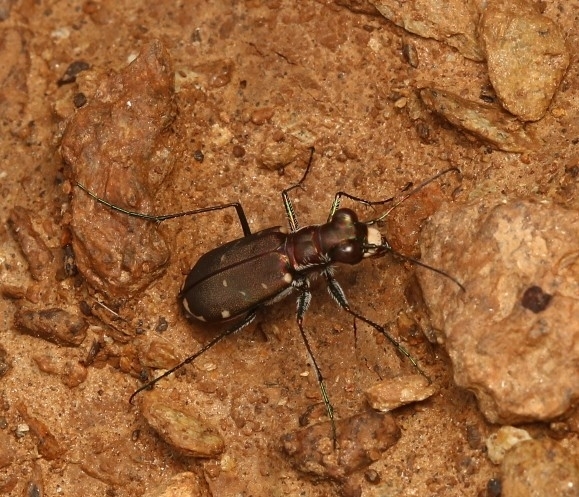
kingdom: Animalia
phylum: Arthropoda
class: Insecta
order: Coleoptera
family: Carabidae
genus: Cicindela
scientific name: Cicindela rufiventris
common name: Eastern red-bellied tiger beetle
